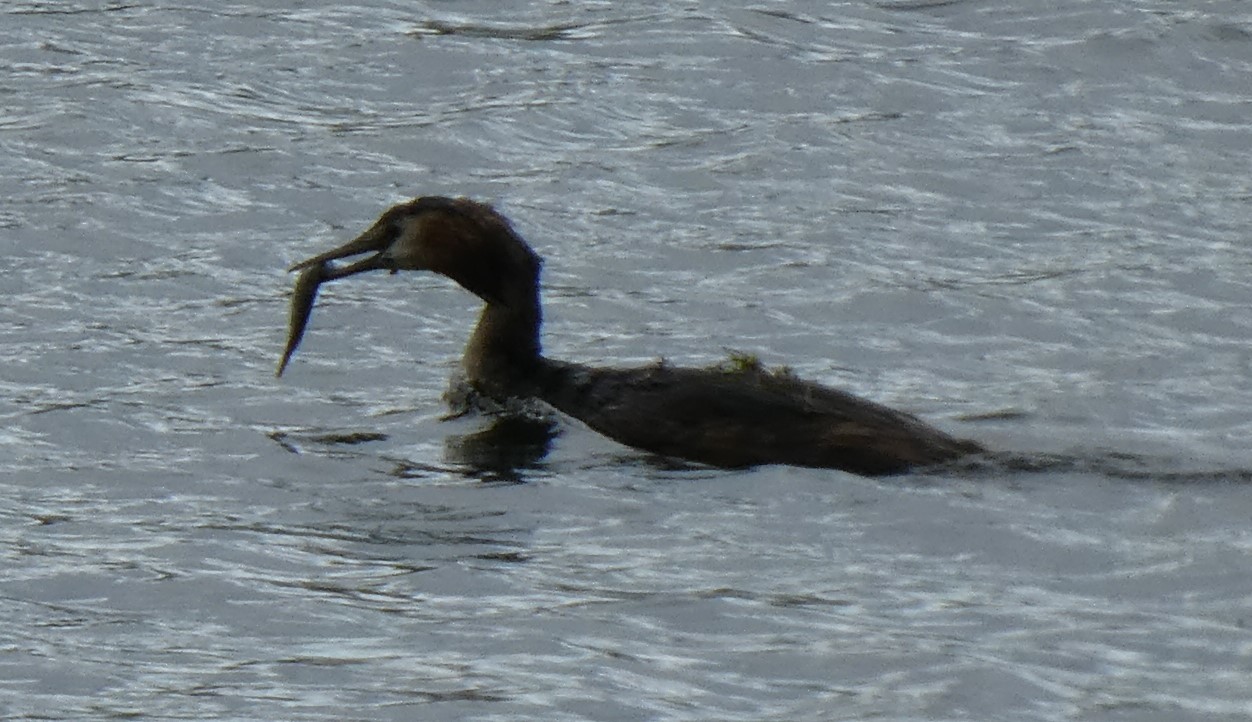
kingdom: Animalia
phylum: Chordata
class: Aves
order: Podicipediformes
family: Podicipedidae
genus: Podiceps
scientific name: Podiceps cristatus
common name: Great crested grebe
